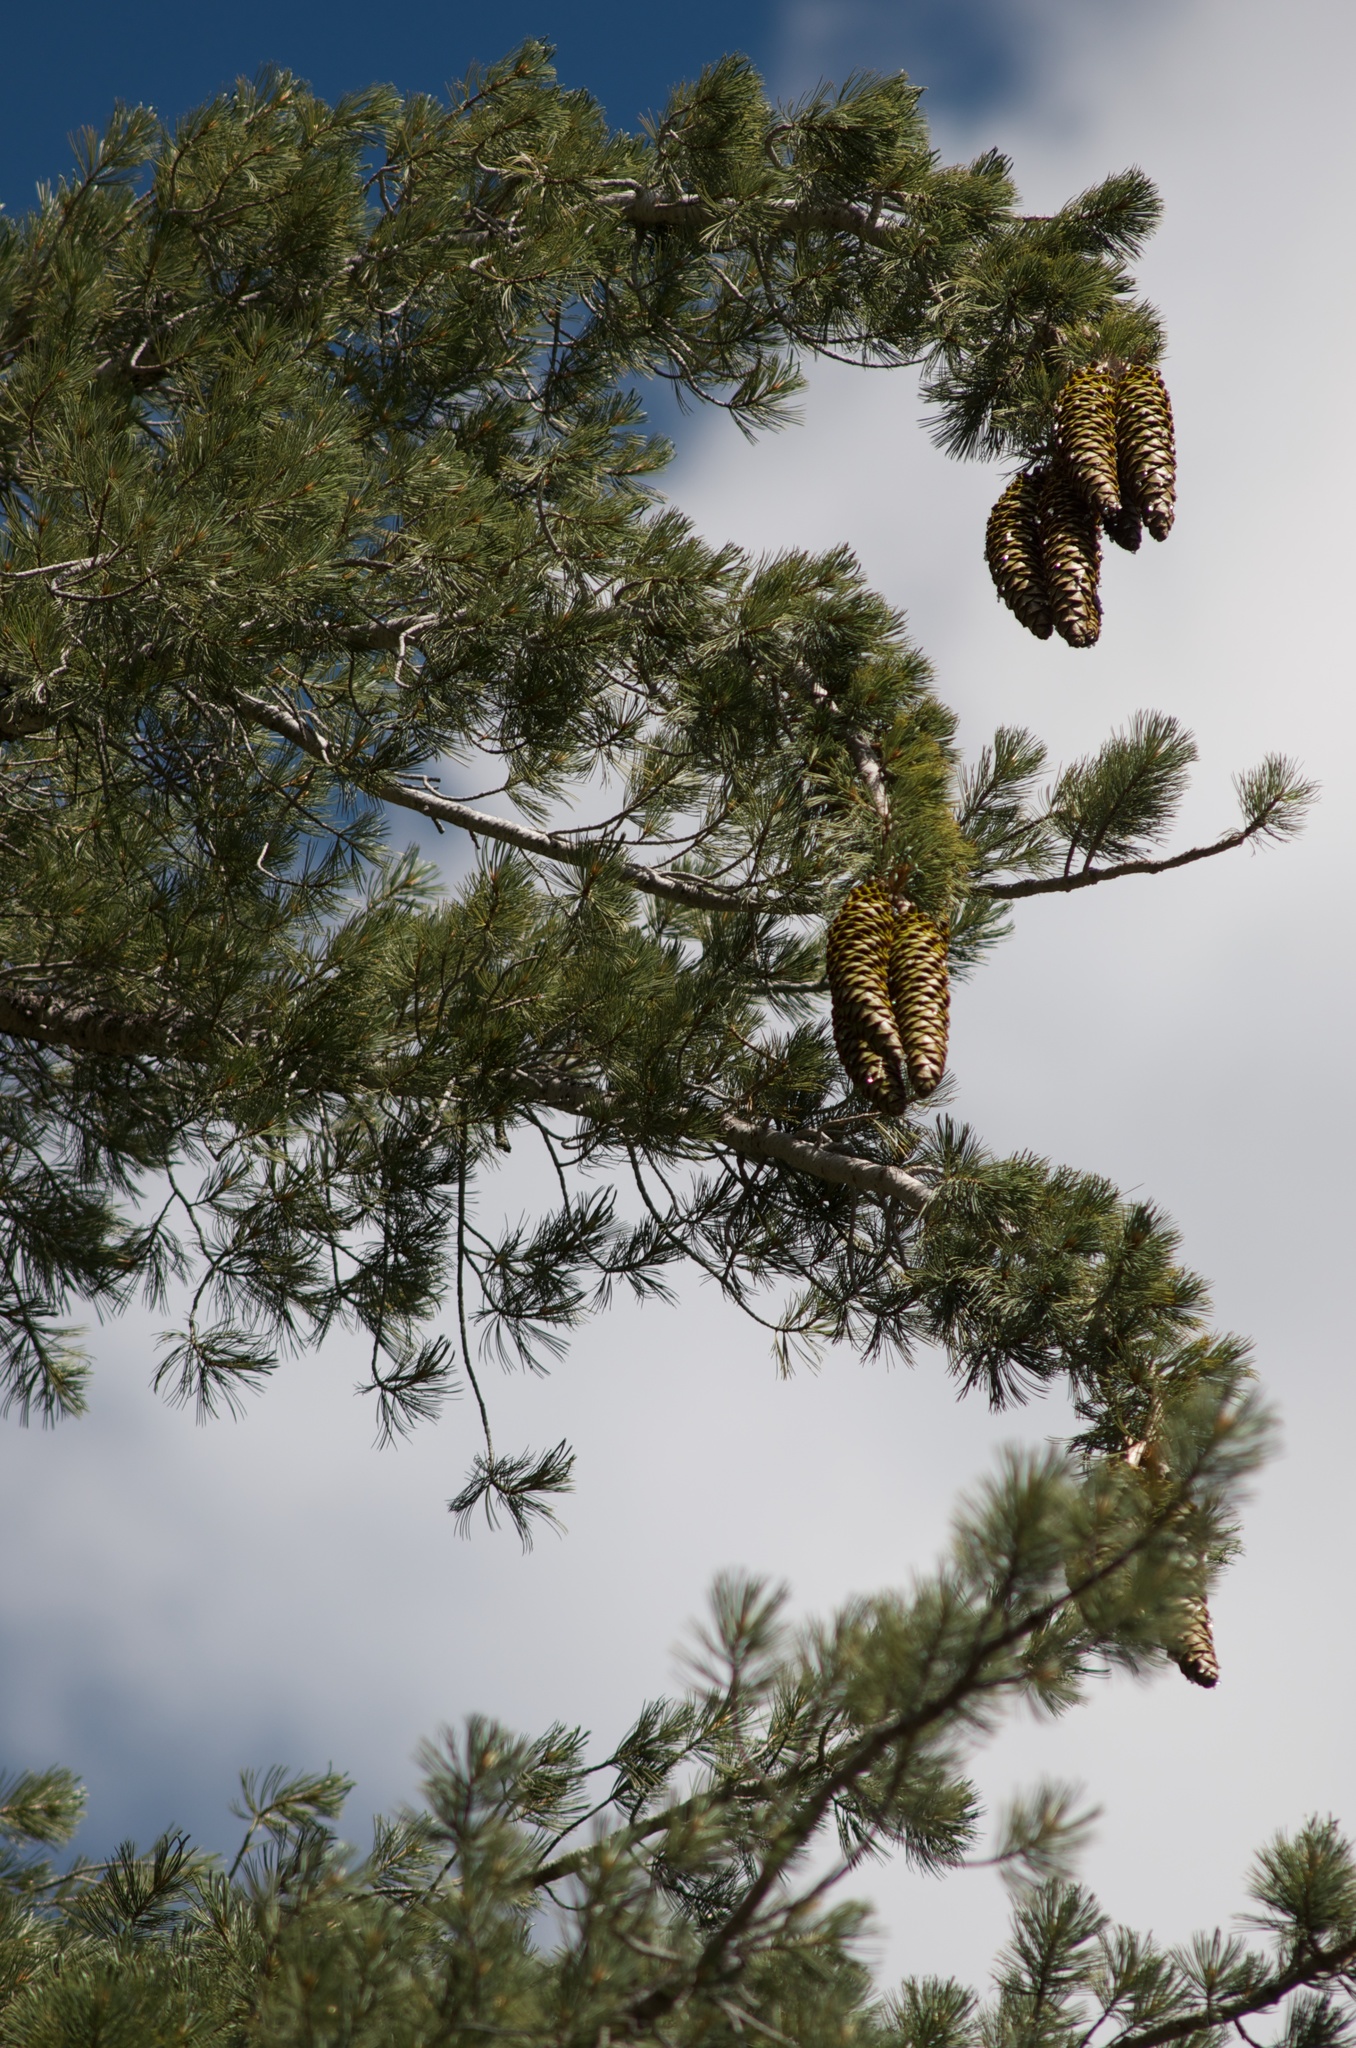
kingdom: Plantae
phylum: Tracheophyta
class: Pinopsida
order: Pinales
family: Pinaceae
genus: Pinus
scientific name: Pinus lambertiana
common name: Sugar pine
